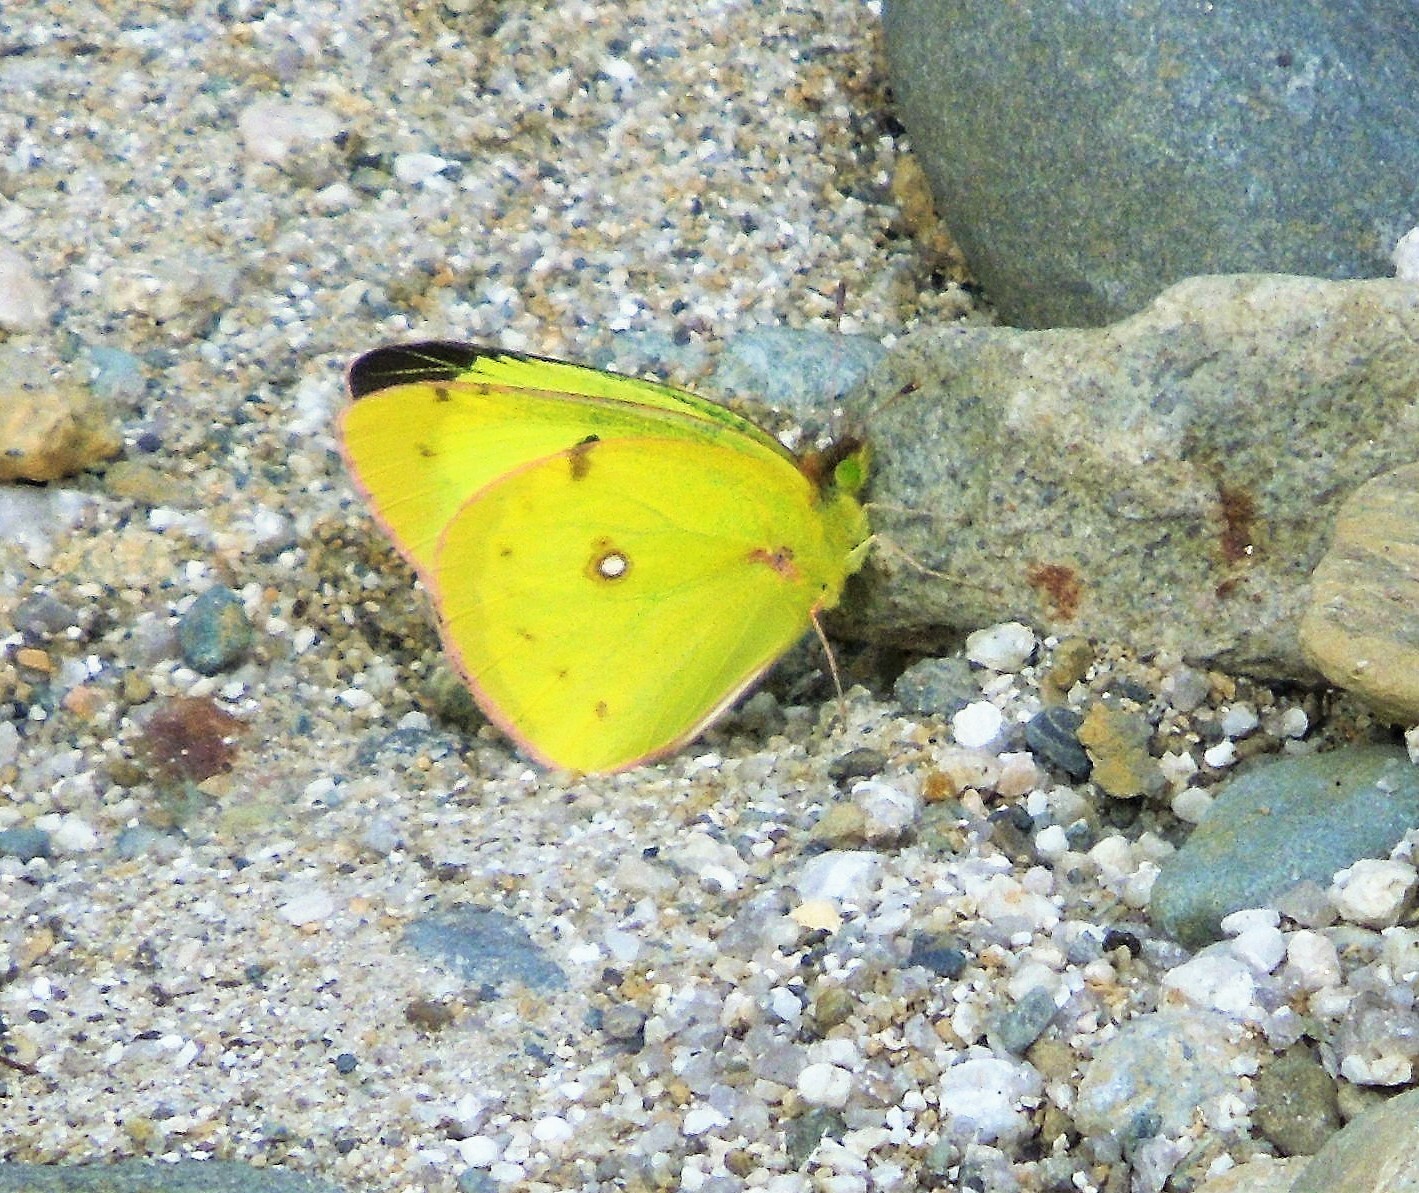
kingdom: Animalia
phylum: Arthropoda
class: Insecta
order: Lepidoptera
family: Pieridae
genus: Colias
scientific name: Colias philodice
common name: Clouded sulphur
